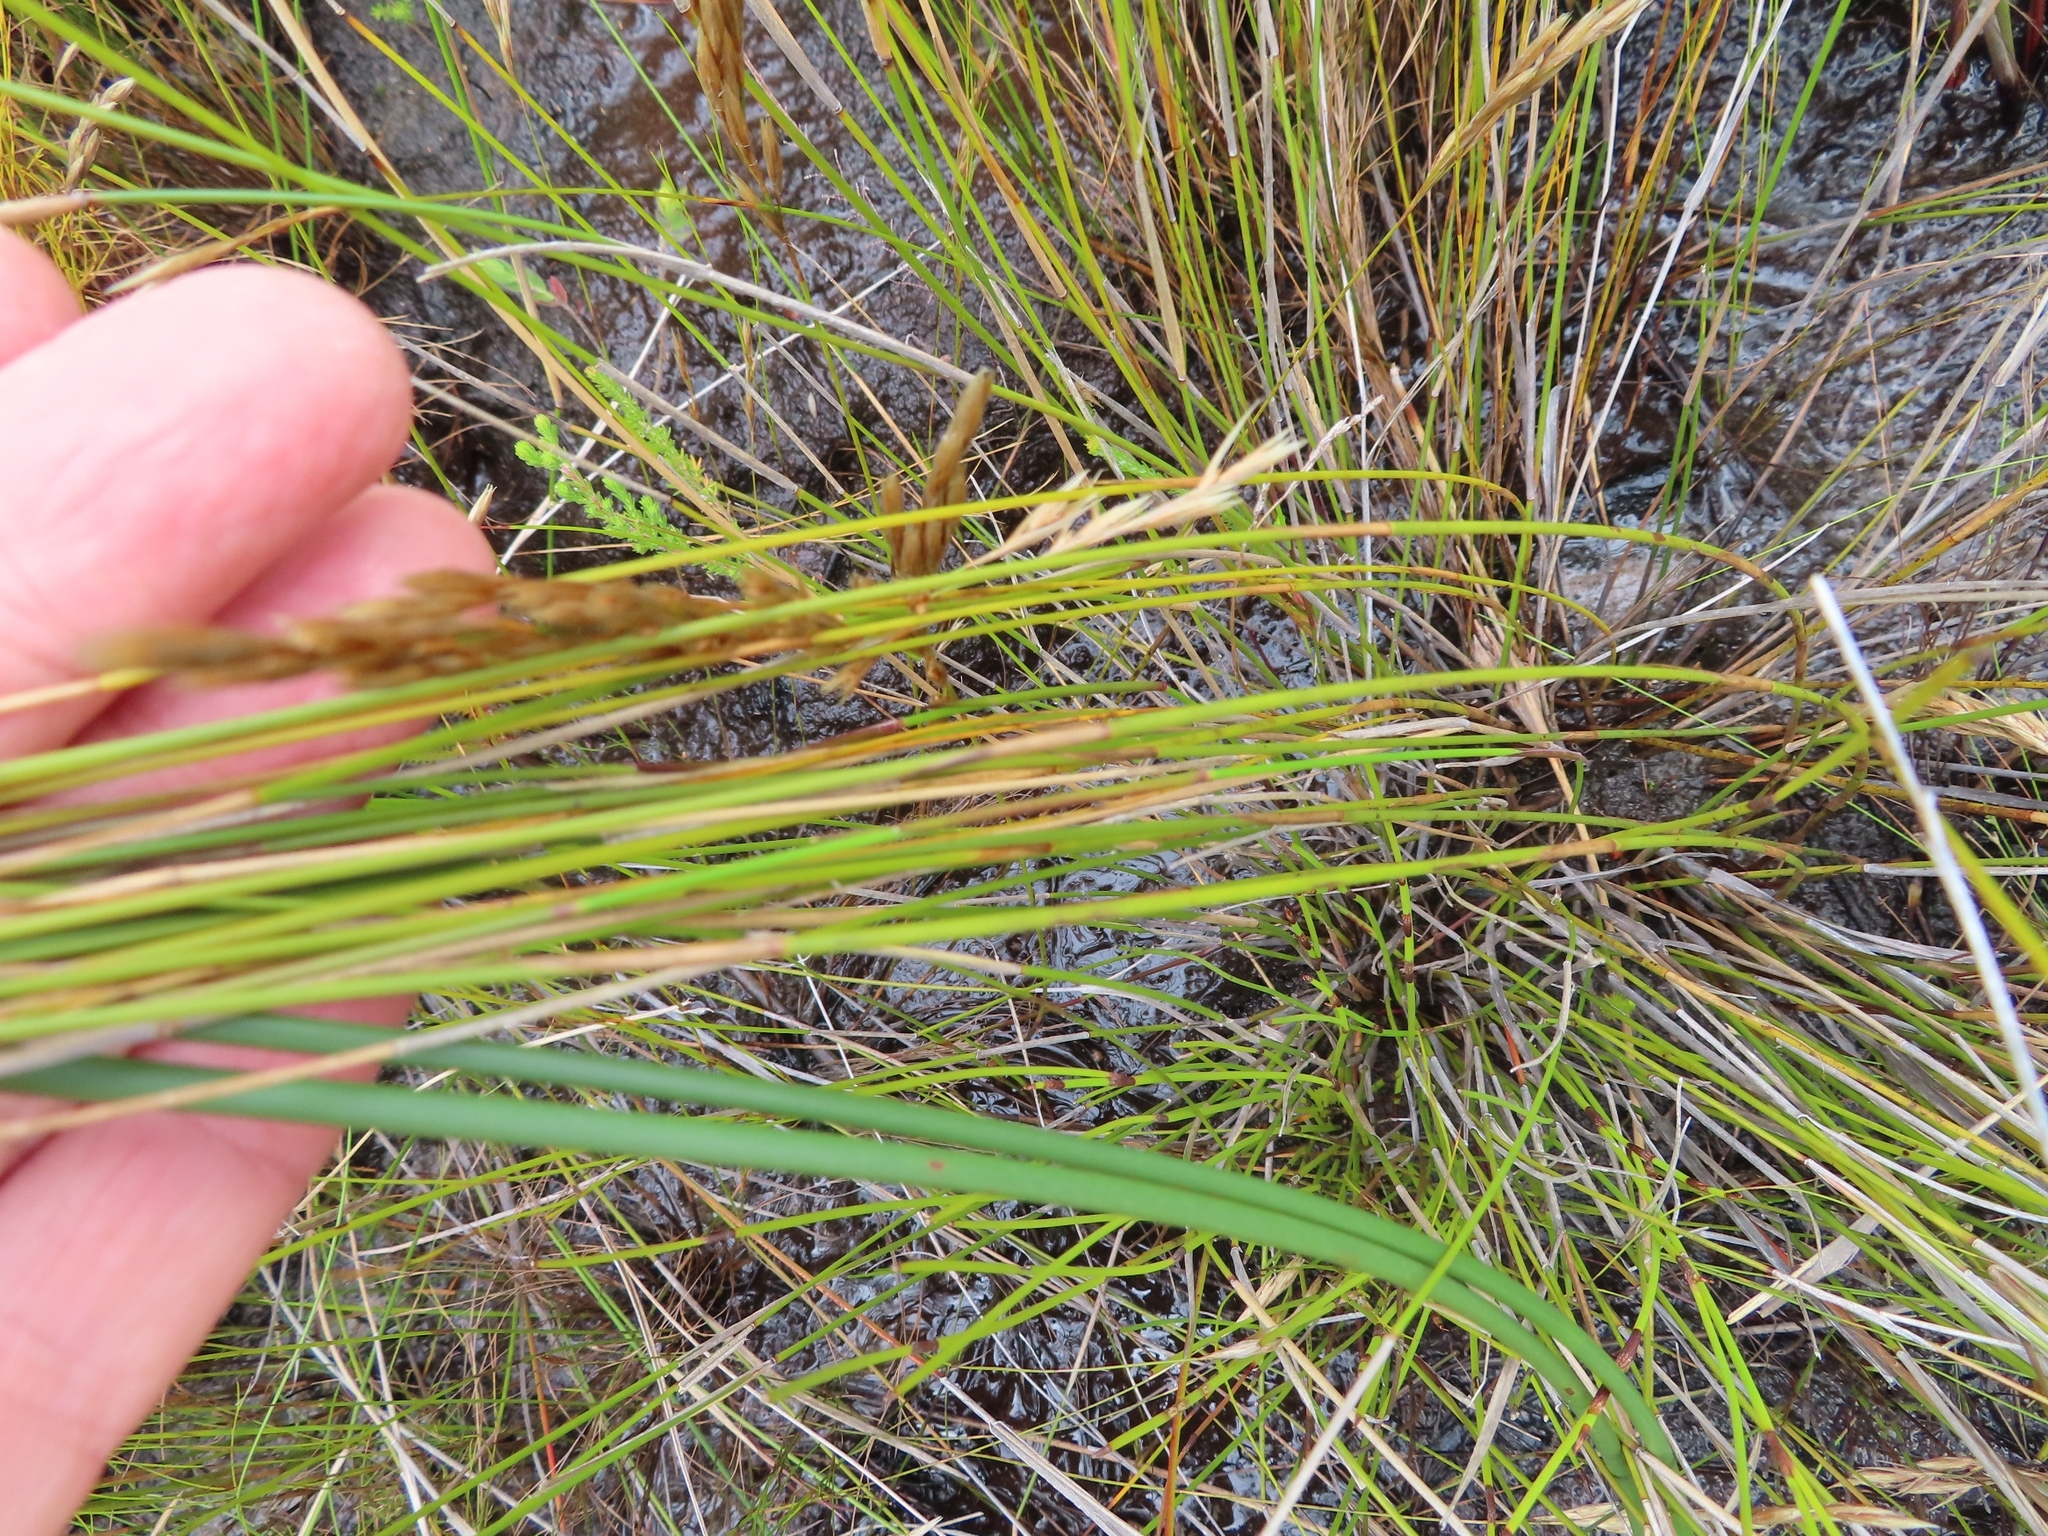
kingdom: Plantae
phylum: Tracheophyta
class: Liliopsida
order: Poales
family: Restionaceae
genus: Restio
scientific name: Restio festuciformis
